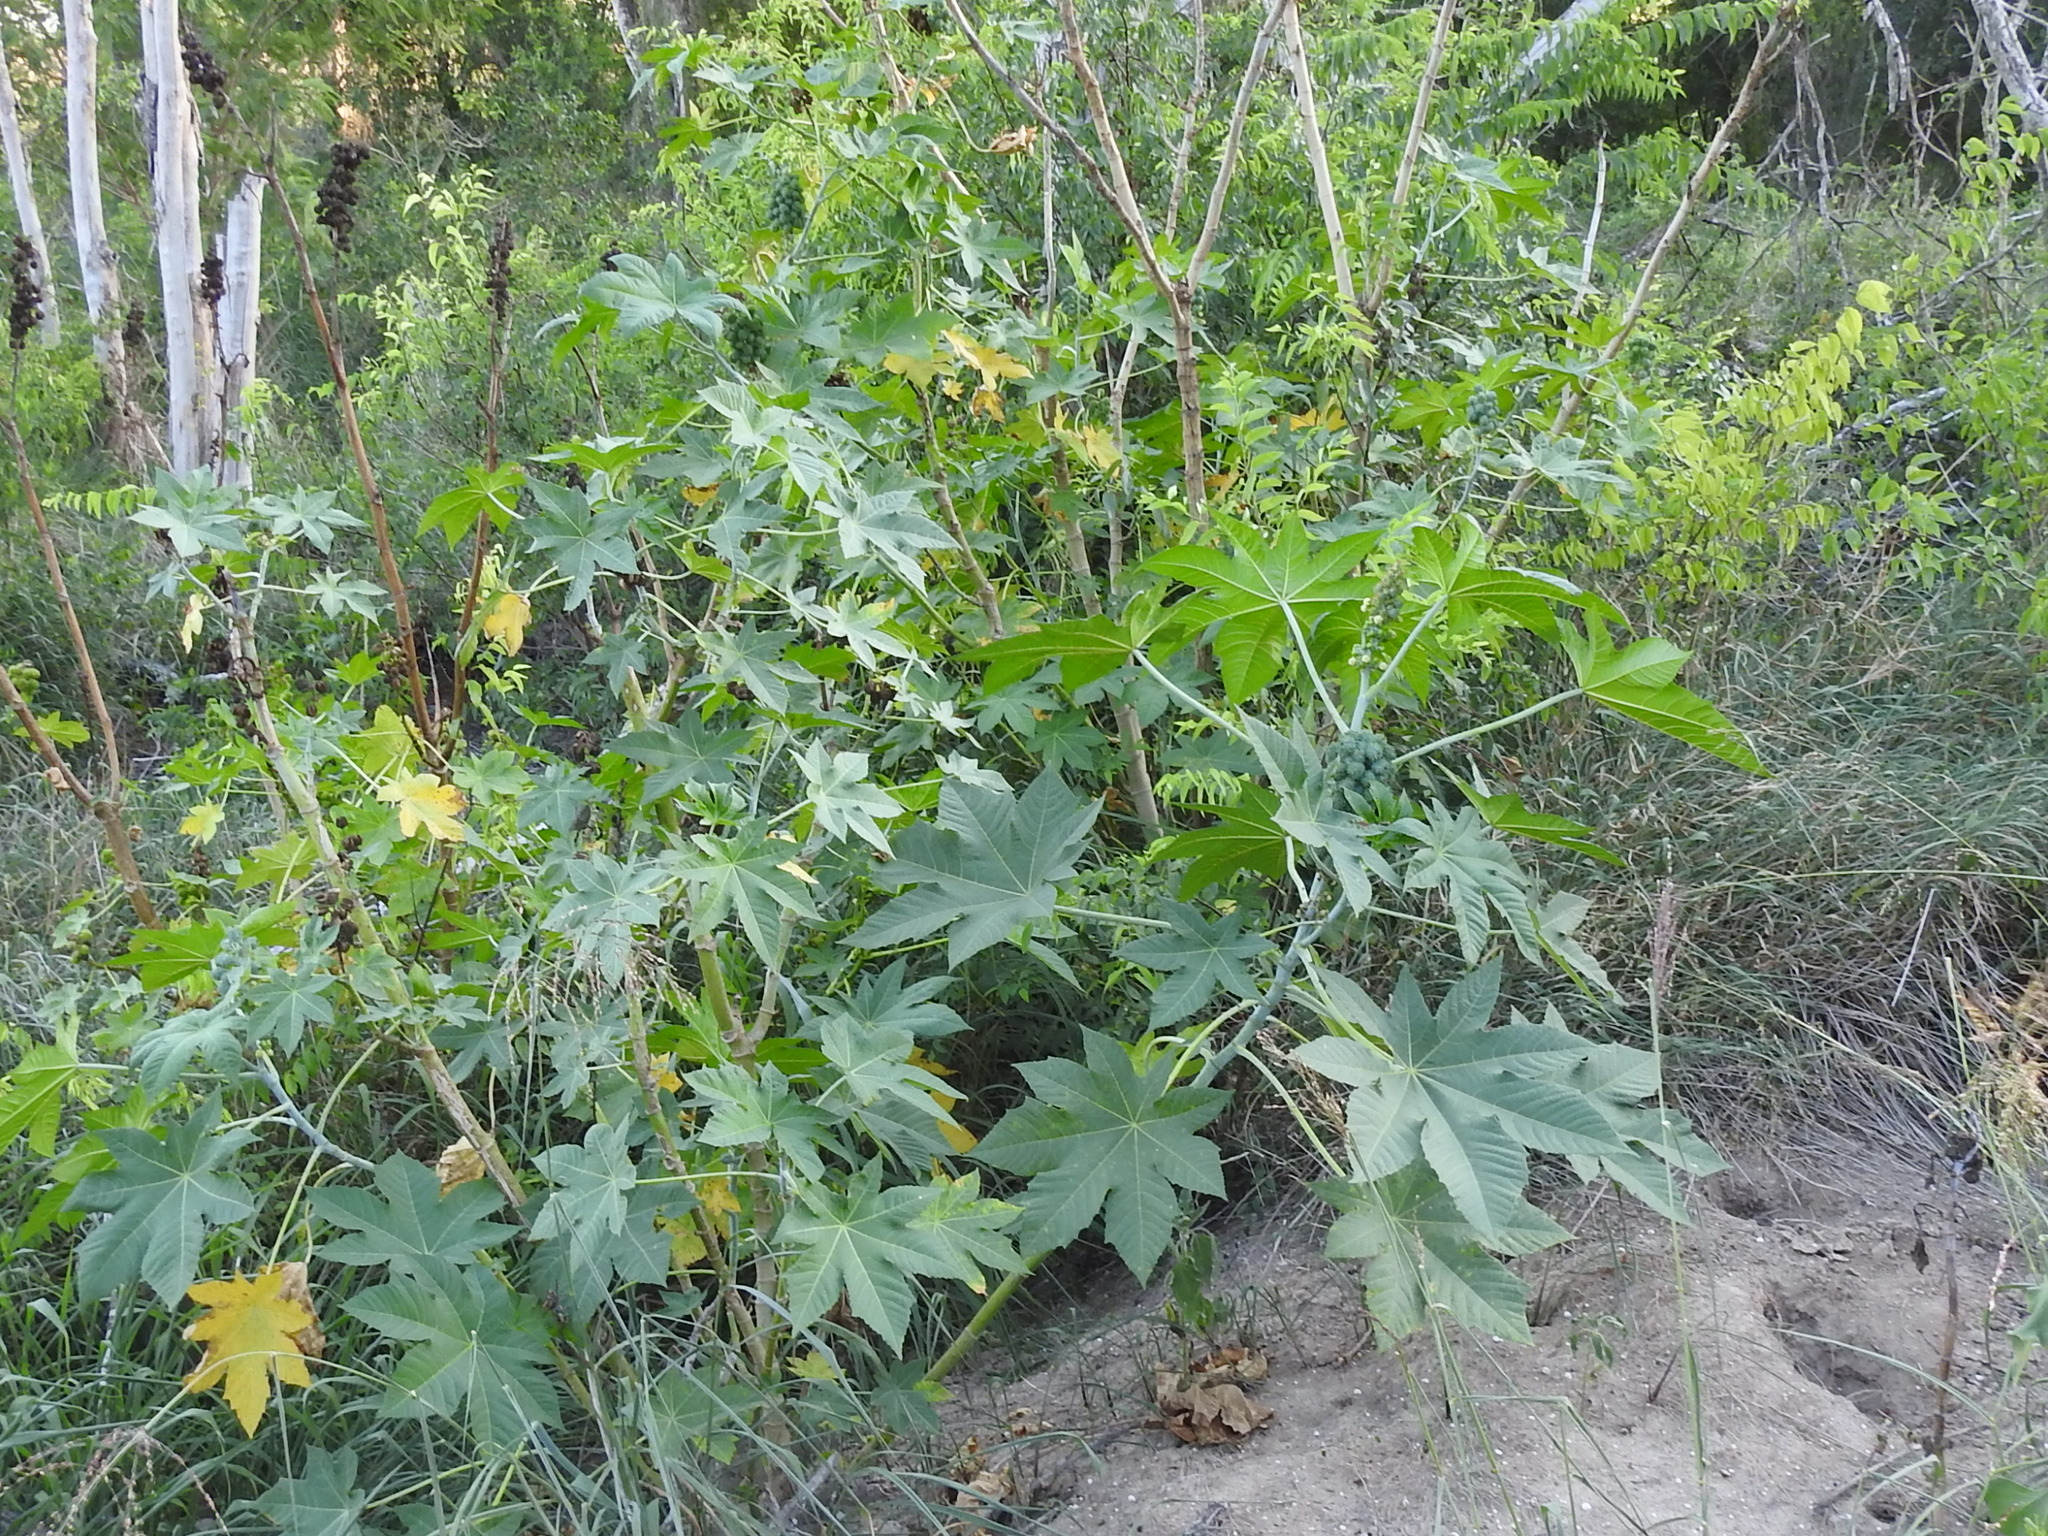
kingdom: Plantae
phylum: Tracheophyta
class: Magnoliopsida
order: Malpighiales
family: Euphorbiaceae
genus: Ricinus
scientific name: Ricinus communis
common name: Castor-oil-plant
